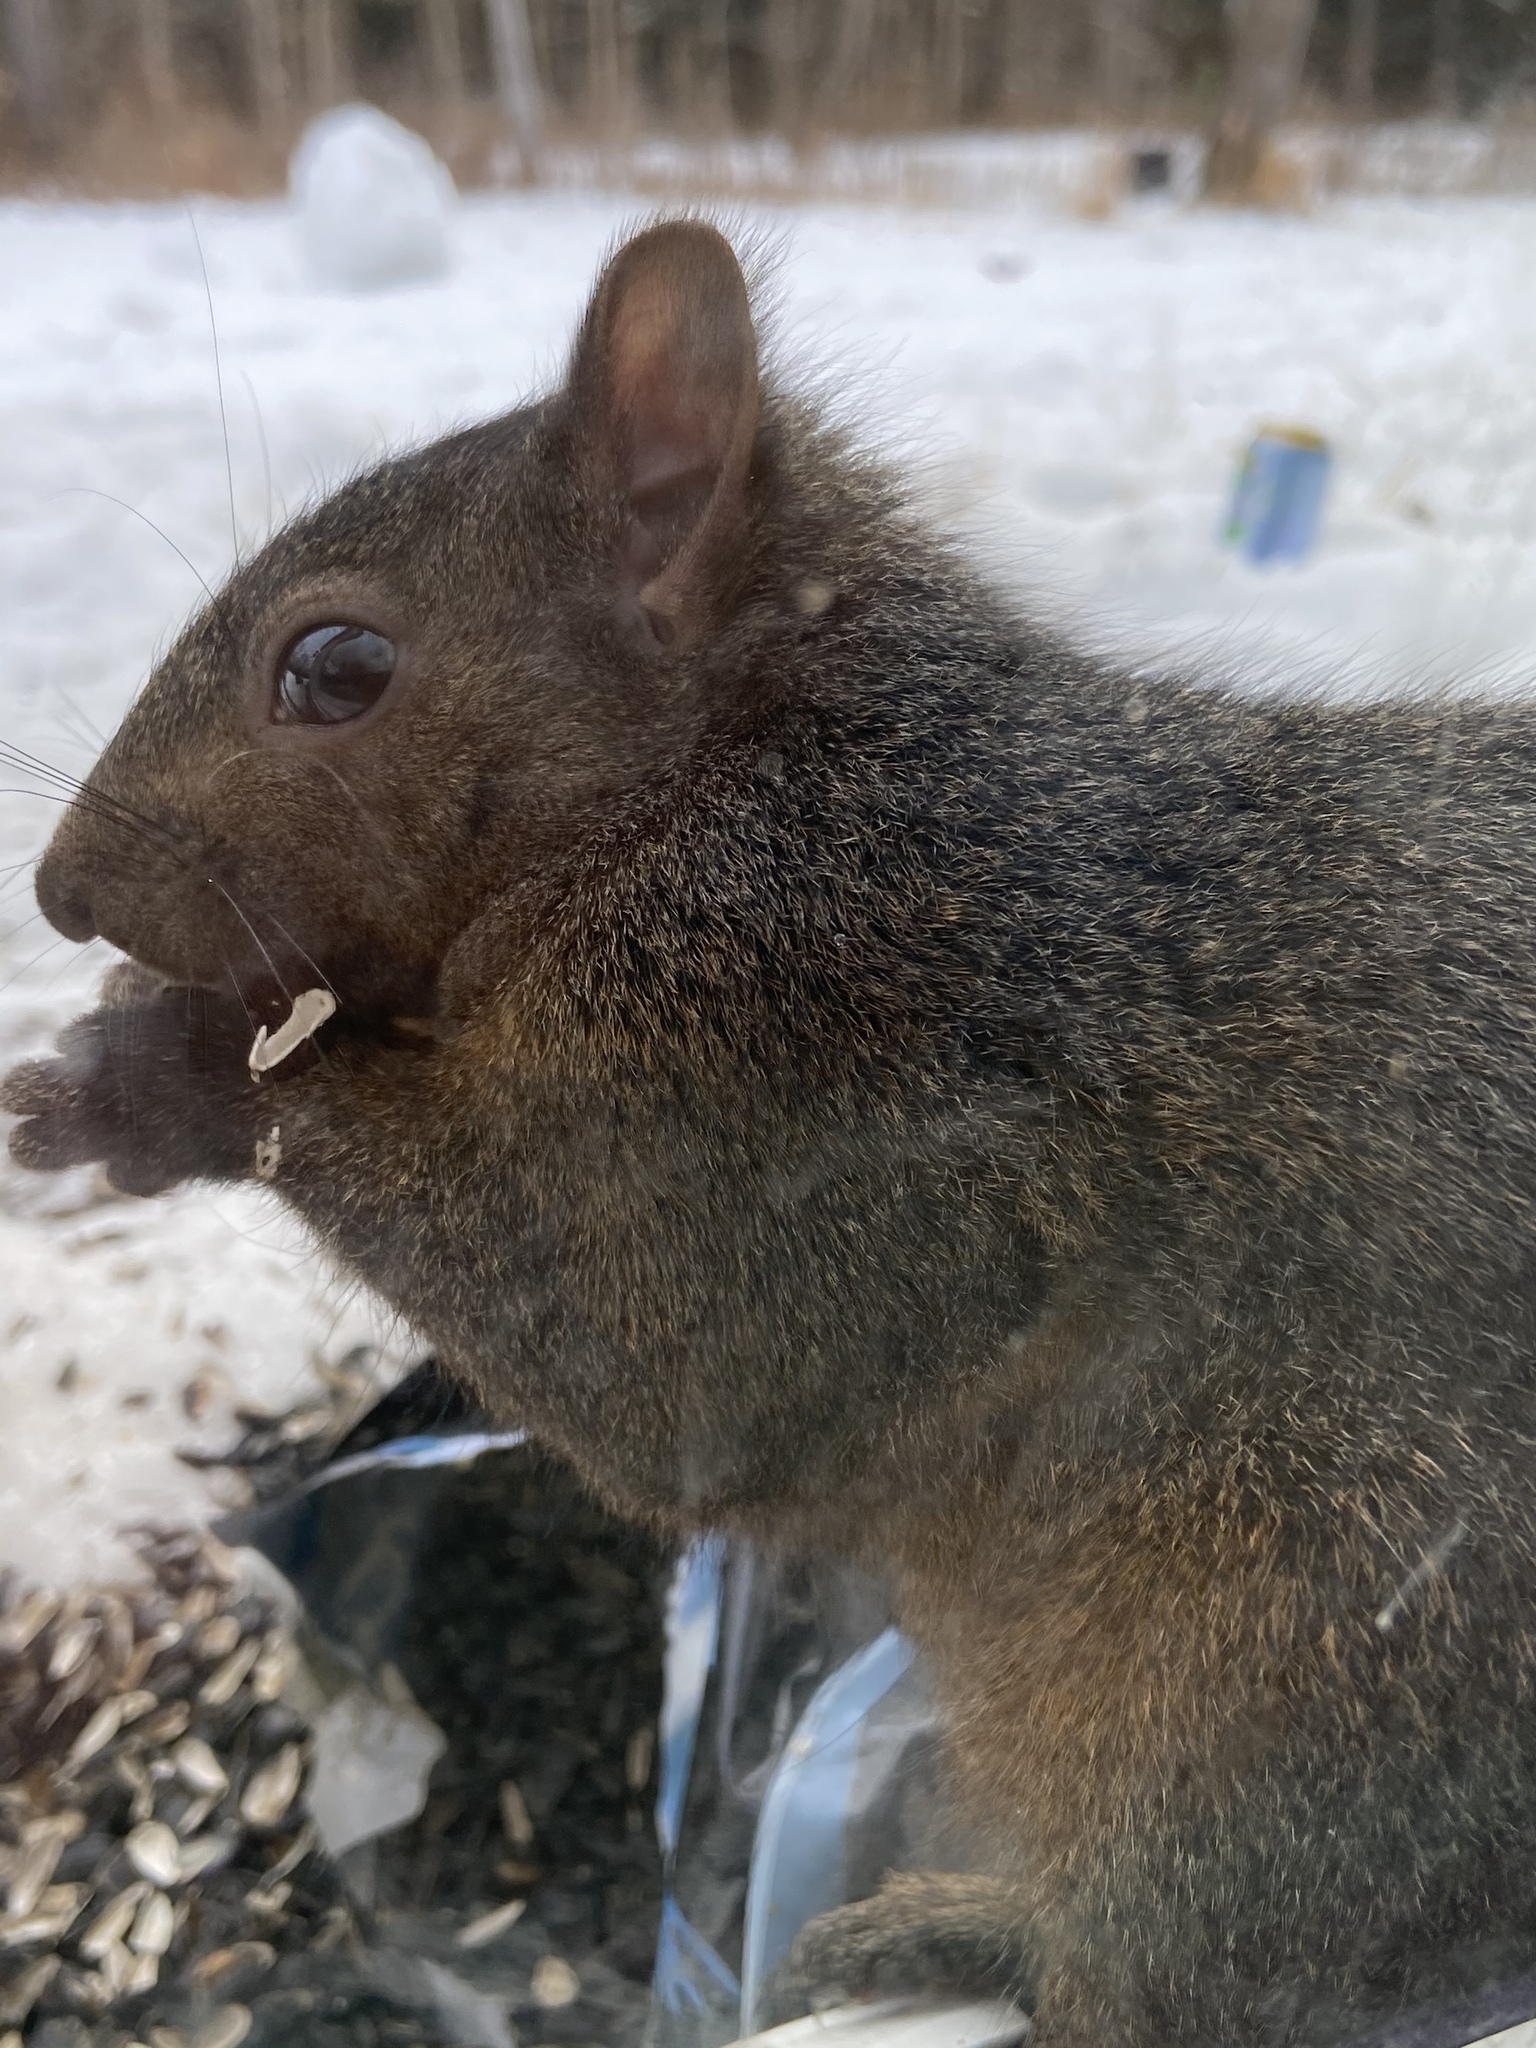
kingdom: Animalia
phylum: Chordata
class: Mammalia
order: Rodentia
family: Sciuridae
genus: Sciurus
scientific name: Sciurus carolinensis
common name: Eastern gray squirrel
